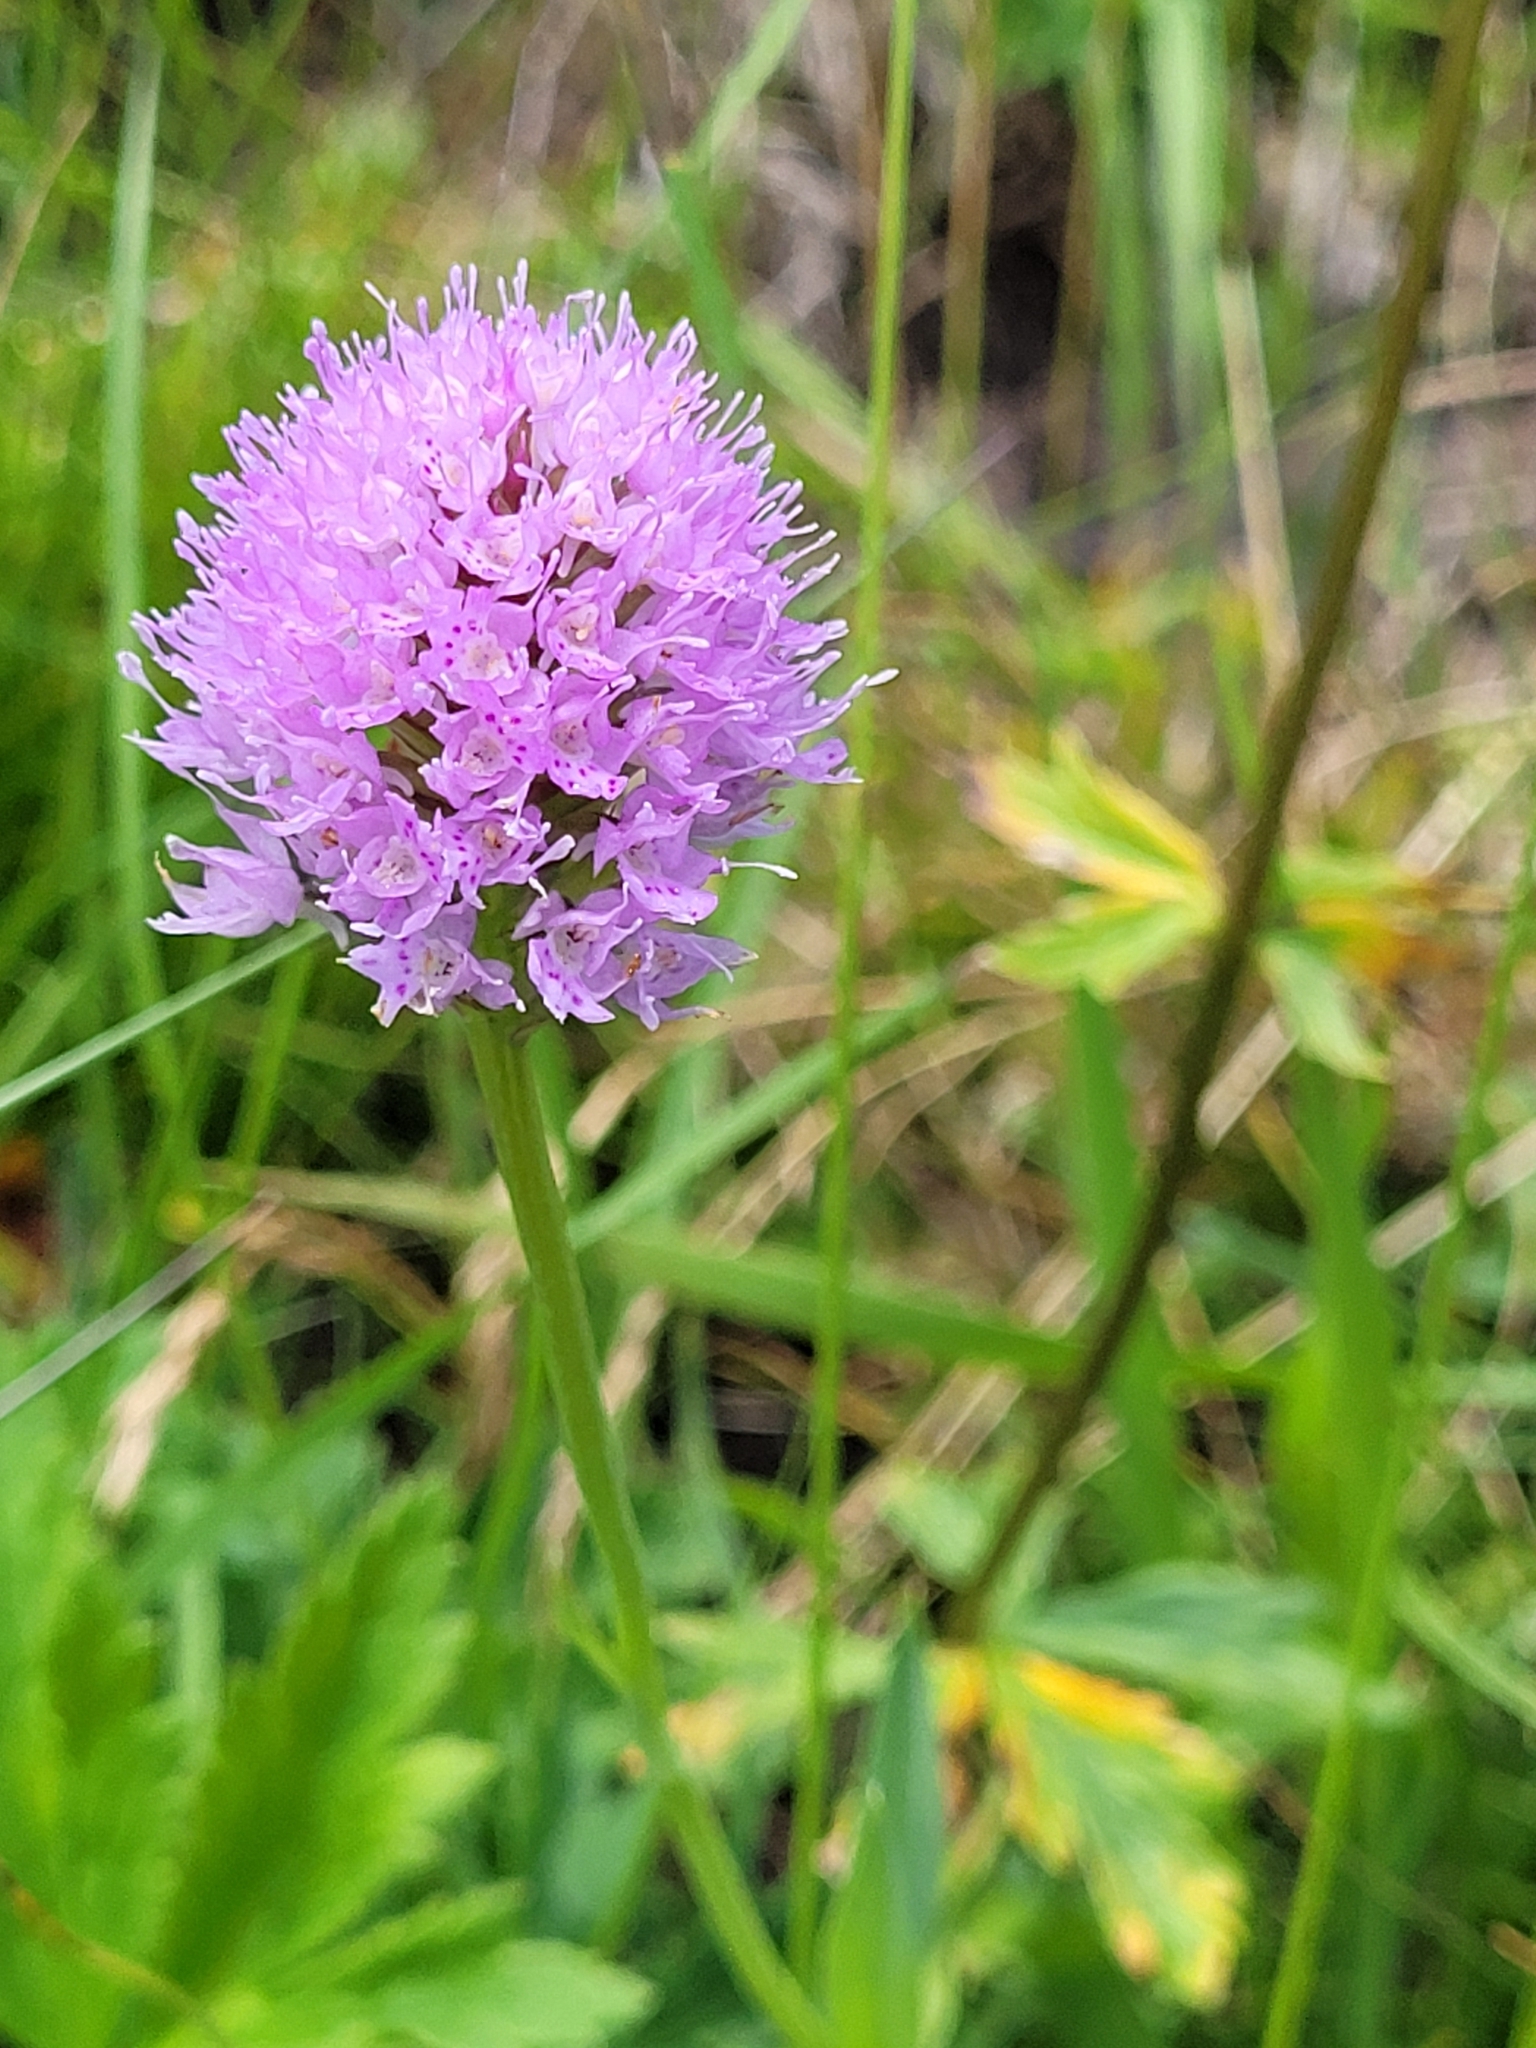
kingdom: Plantae
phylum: Tracheophyta
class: Liliopsida
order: Asparagales
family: Orchidaceae
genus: Traunsteinera
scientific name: Traunsteinera globosa
